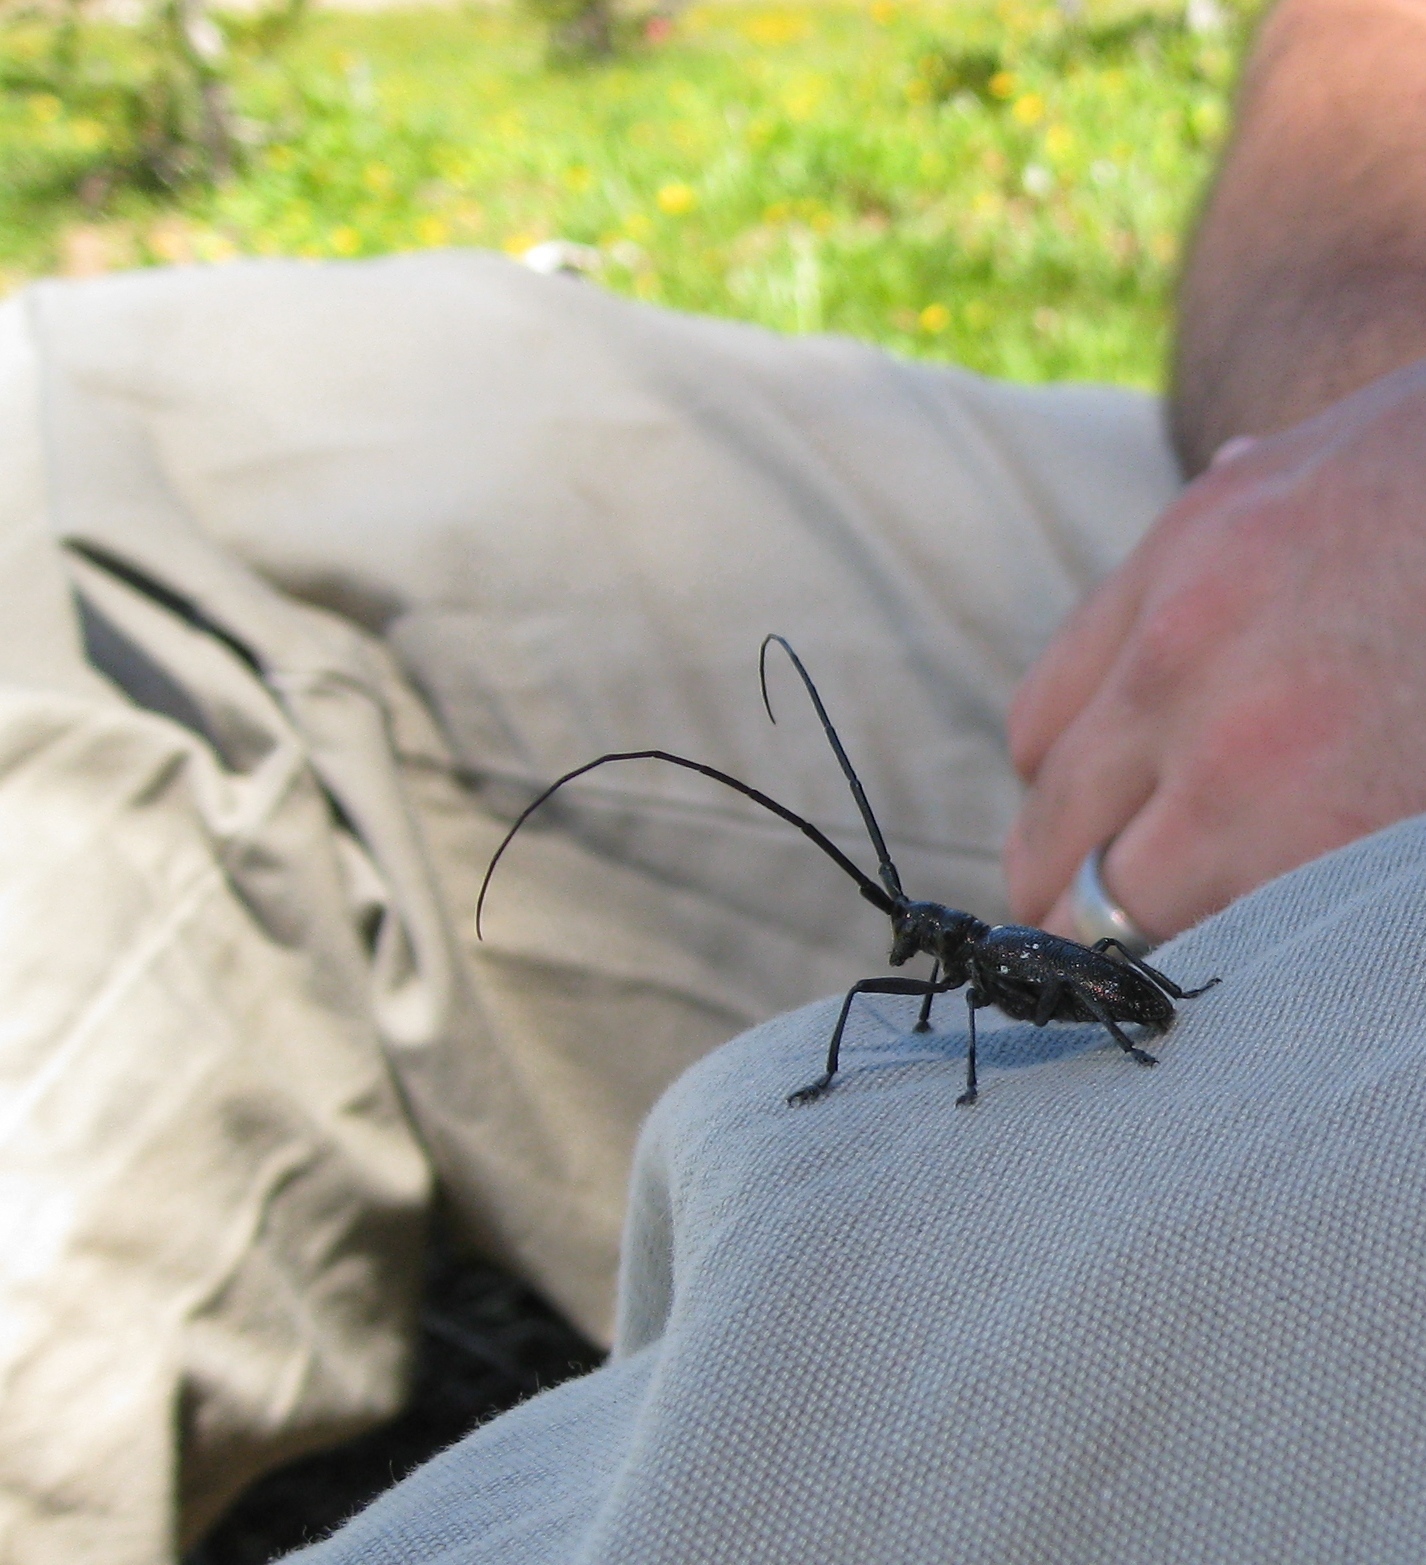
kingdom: Animalia
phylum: Arthropoda
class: Insecta
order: Coleoptera
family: Cerambycidae
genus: Monochamus
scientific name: Monochamus scutellatus
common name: White-spotted sawyer beetle
